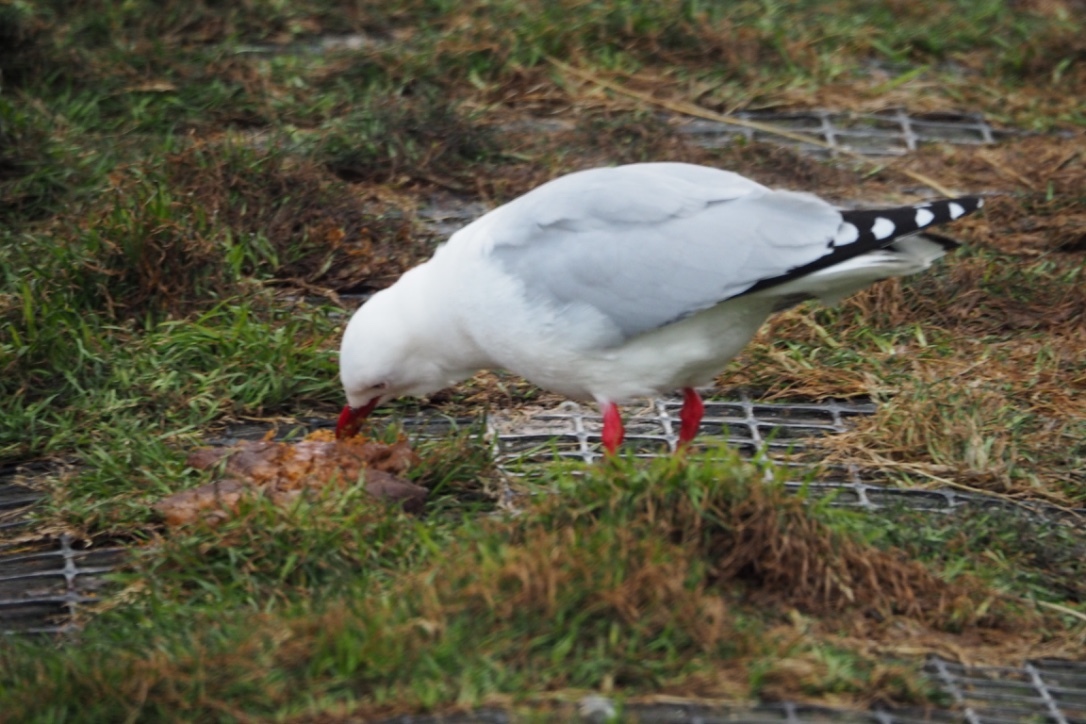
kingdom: Animalia
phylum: Chordata
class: Aves
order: Charadriiformes
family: Laridae
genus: Chroicocephalus
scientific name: Chroicocephalus novaehollandiae
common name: Silver gull
